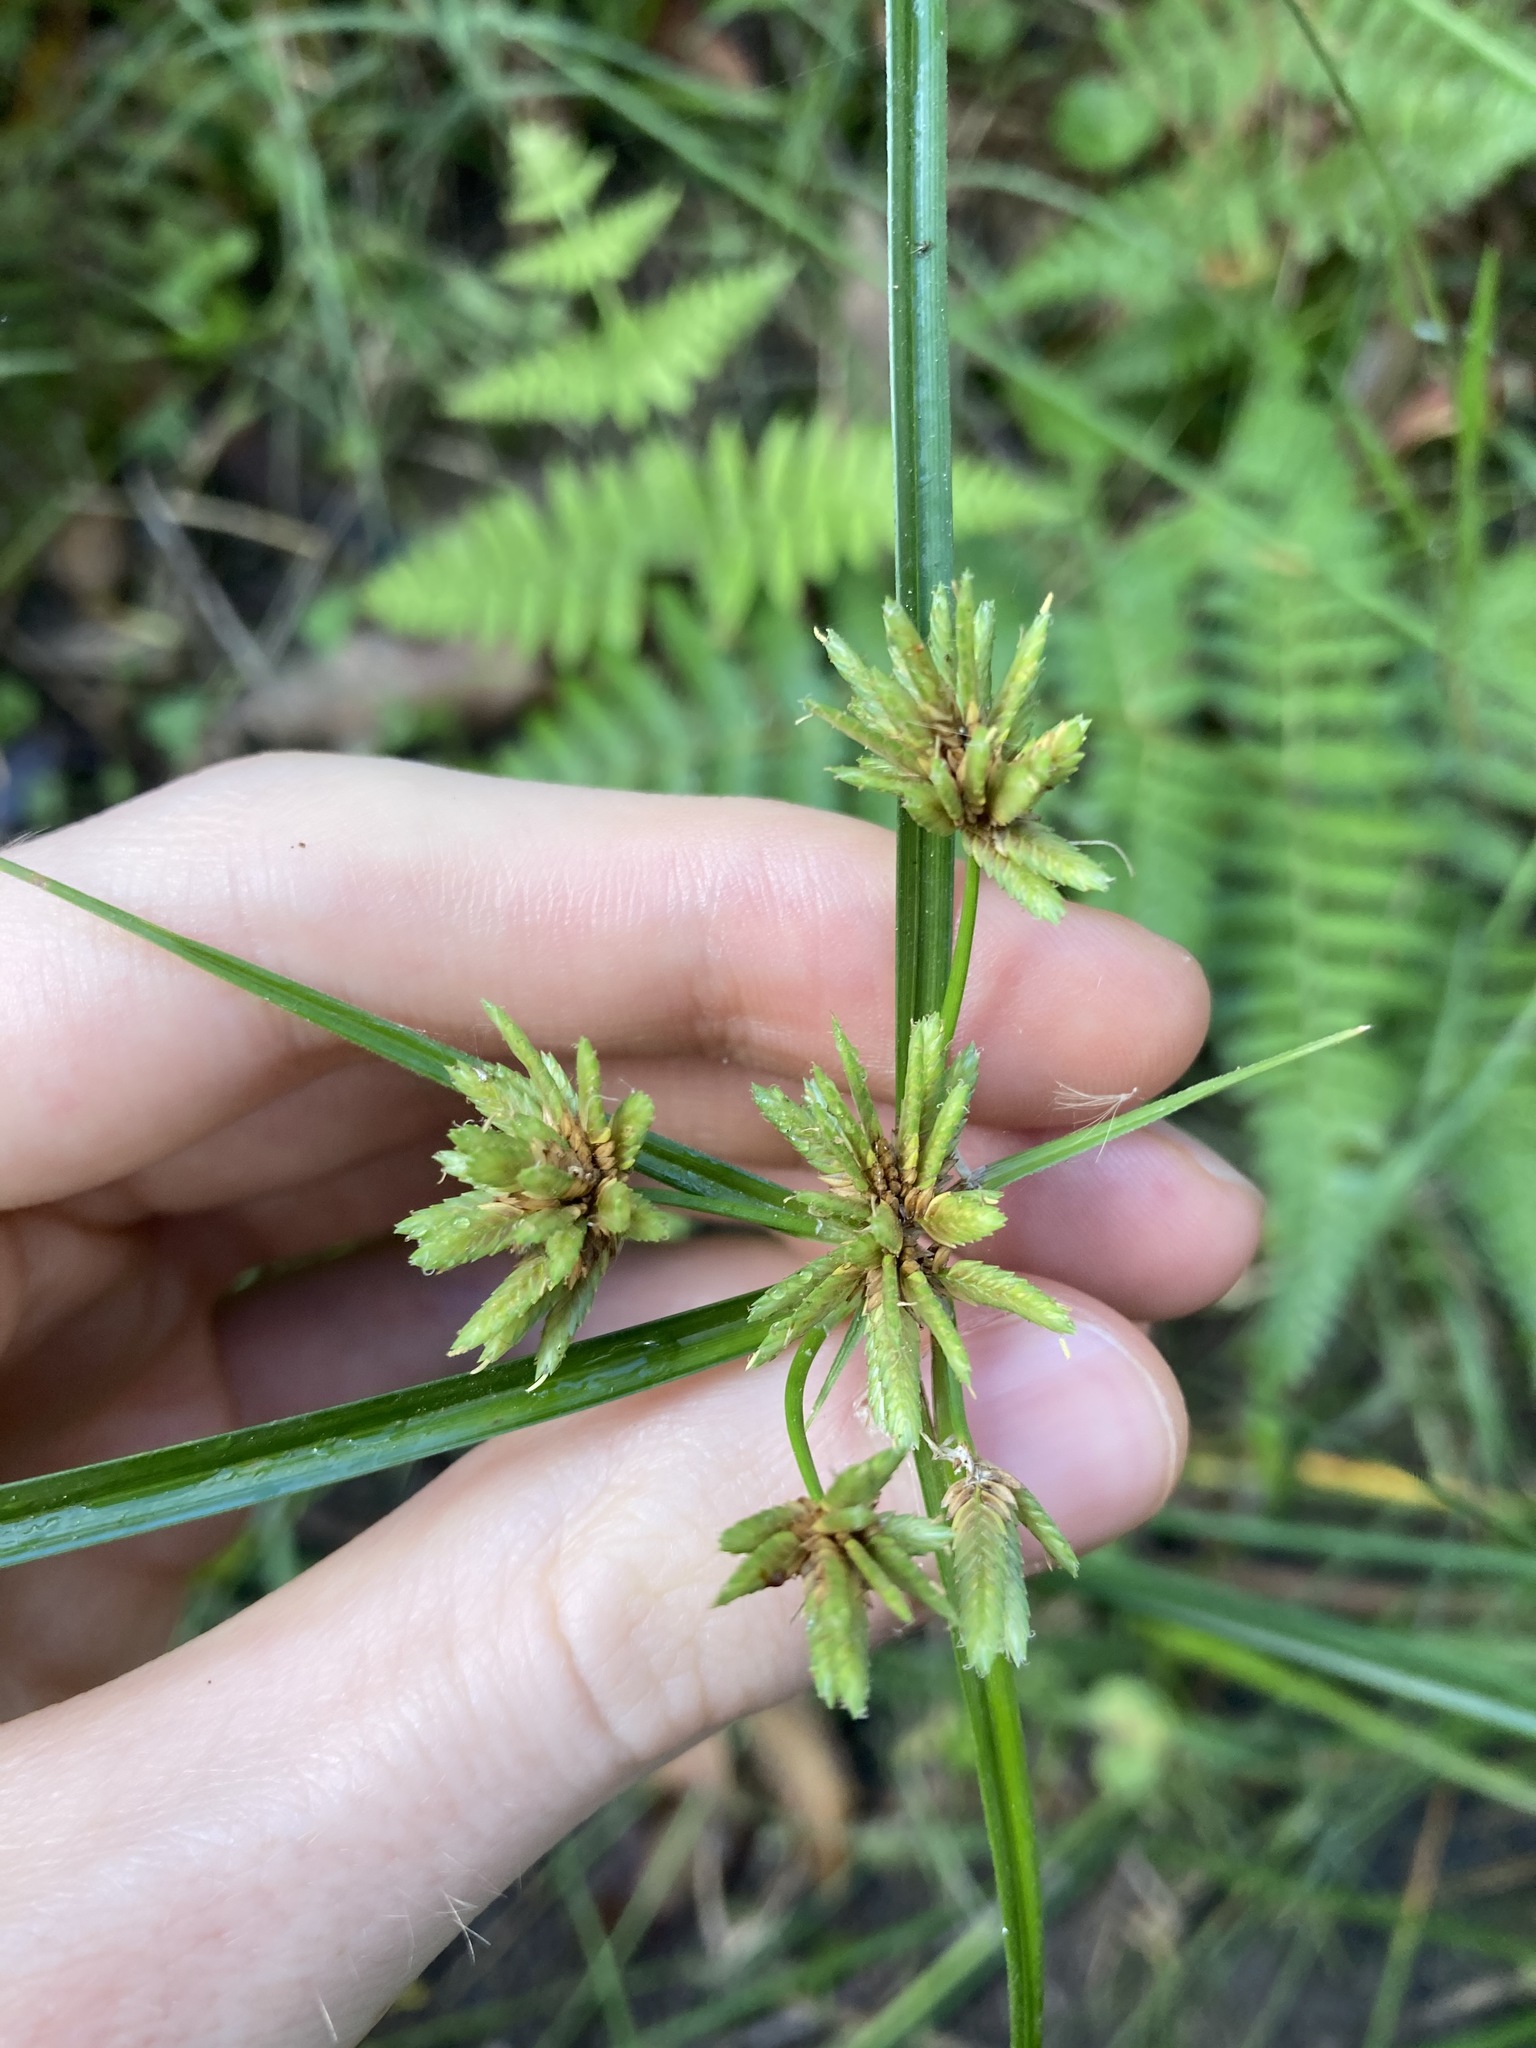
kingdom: Plantae
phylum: Tracheophyta
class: Liliopsida
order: Poales
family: Cyperaceae
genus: Cyperus
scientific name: Cyperus eragrostis
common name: Tall flatsedge
